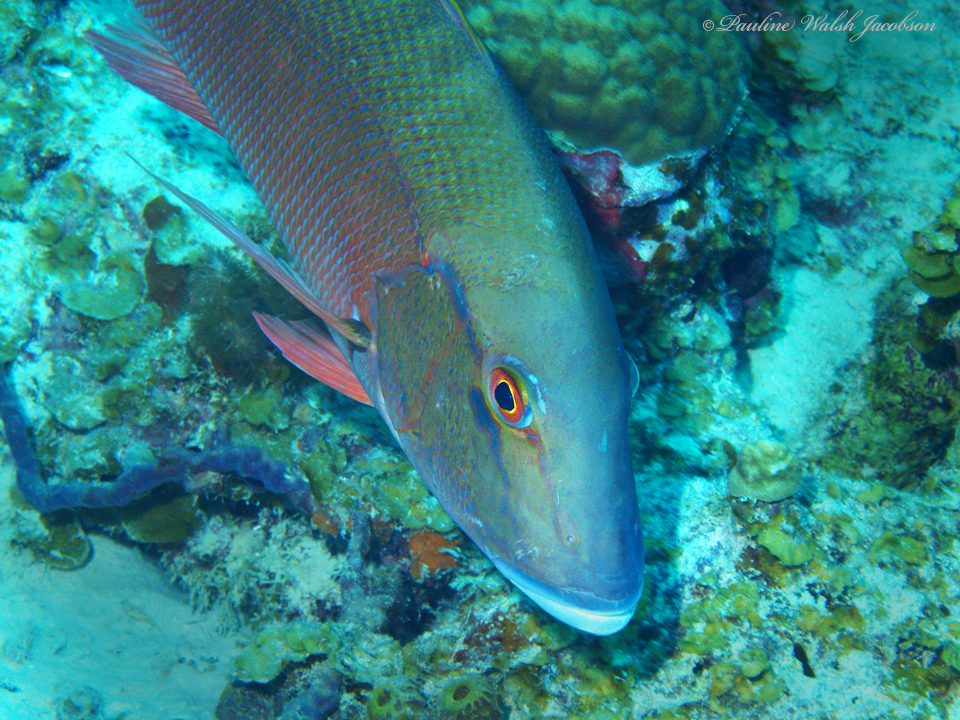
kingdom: Animalia
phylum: Chordata
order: Perciformes
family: Lutjanidae
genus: Lutjanus
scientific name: Lutjanus analis
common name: Mutton snapper
